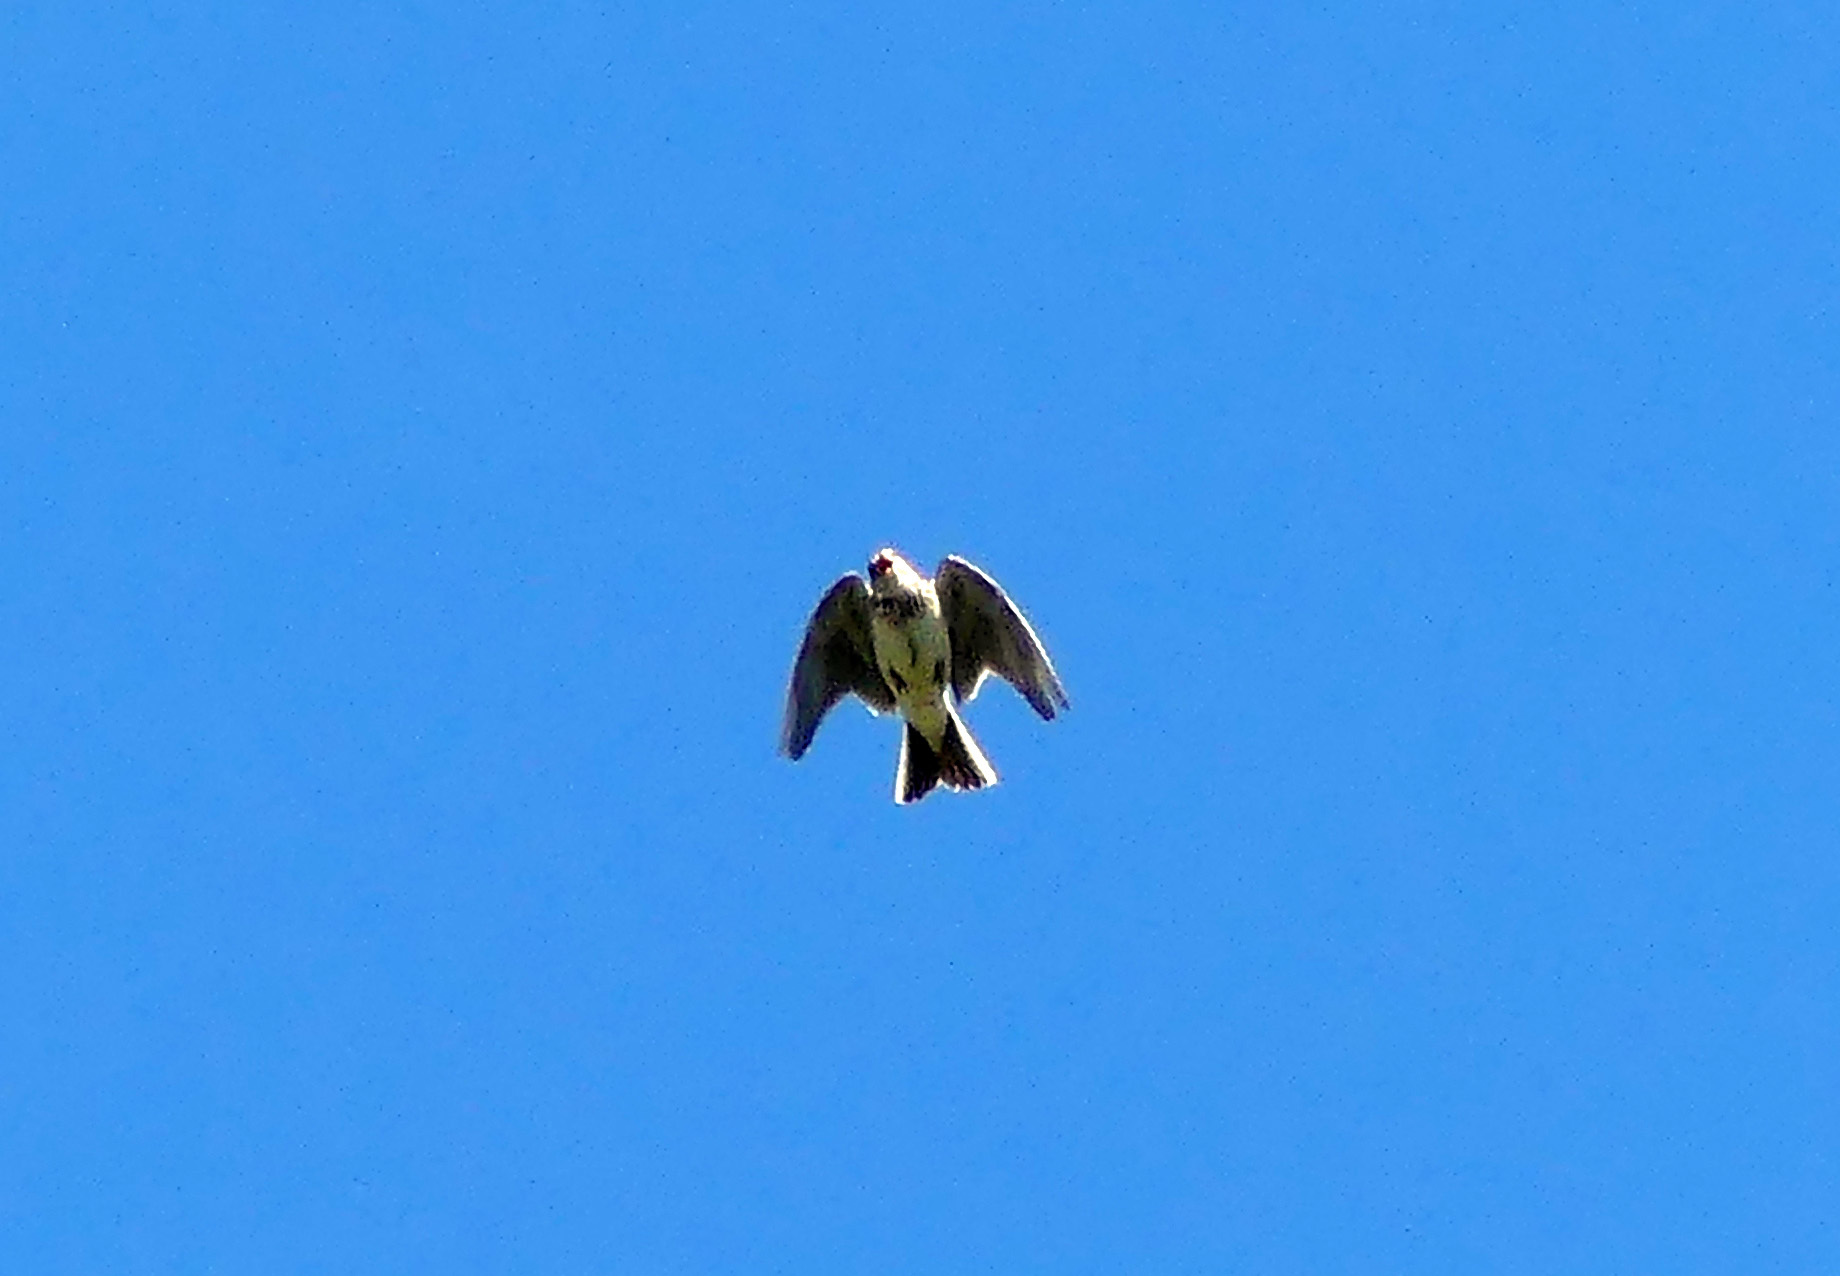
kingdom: Animalia
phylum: Chordata
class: Aves
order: Passeriformes
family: Alaudidae
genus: Alauda
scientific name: Alauda arvensis
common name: Eurasian skylark
